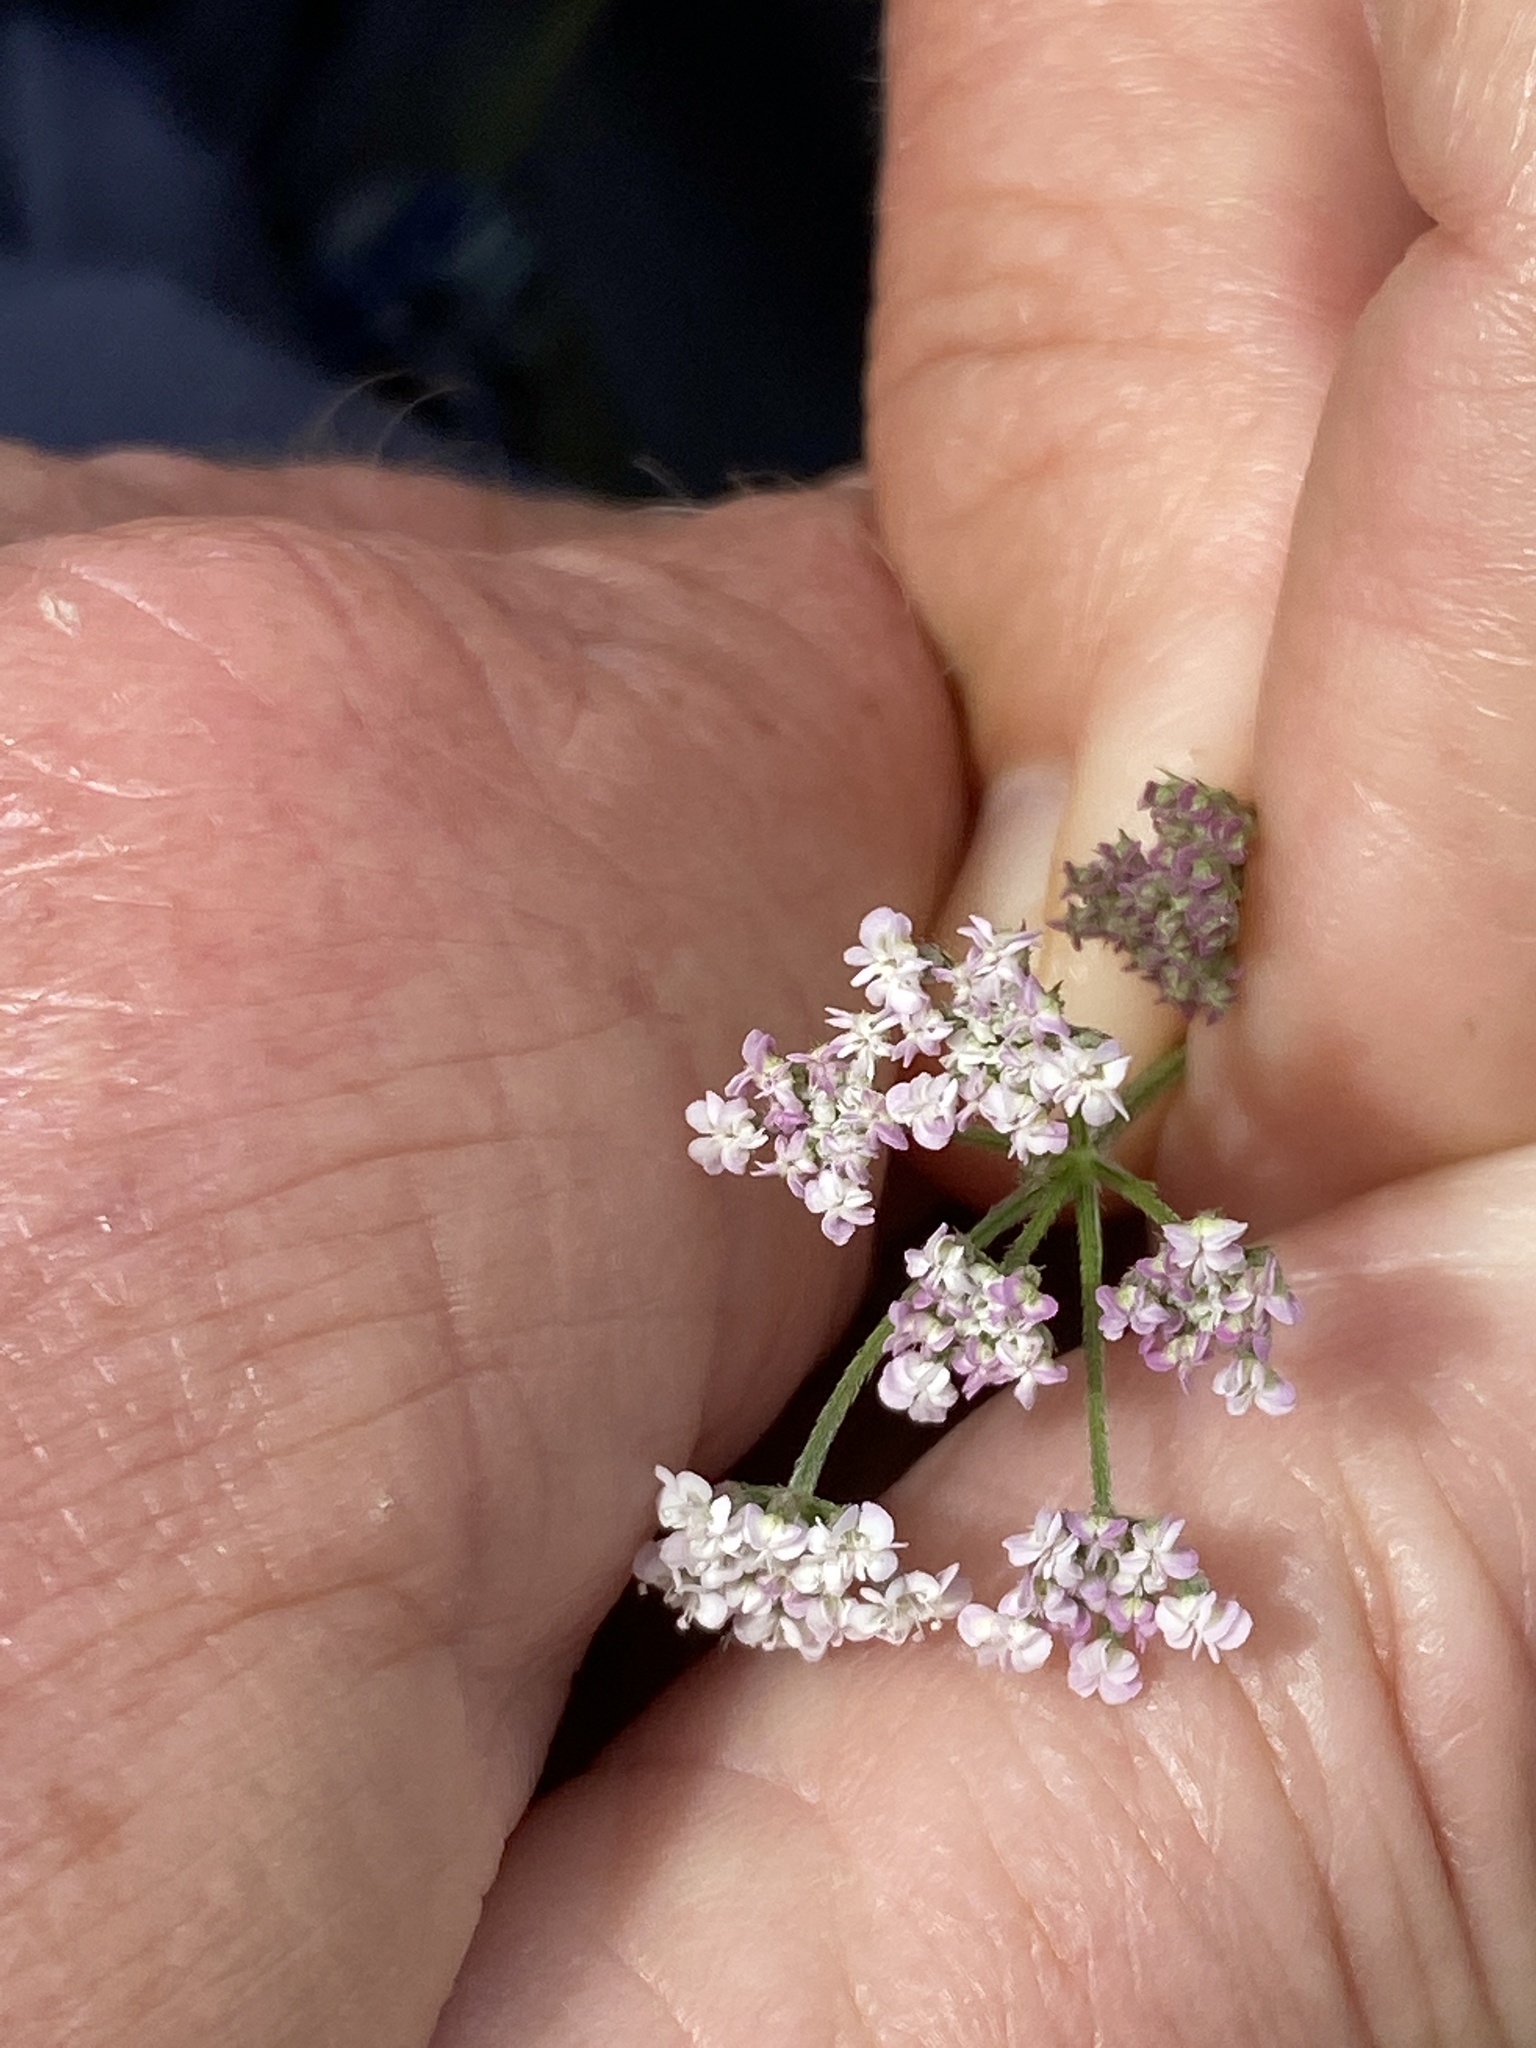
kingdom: Plantae
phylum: Tracheophyta
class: Magnoliopsida
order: Apiales
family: Apiaceae
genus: Torilis
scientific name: Torilis japonica
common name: Upright hedge-parsley
